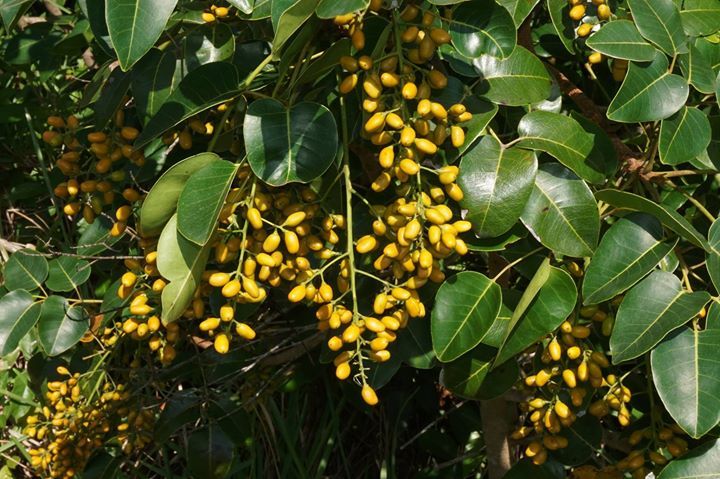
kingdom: Plantae
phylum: Tracheophyta
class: Magnoliopsida
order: Sapindales
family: Anacardiaceae
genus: Metopium
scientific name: Metopium toxiferum
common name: Florida poisontree
